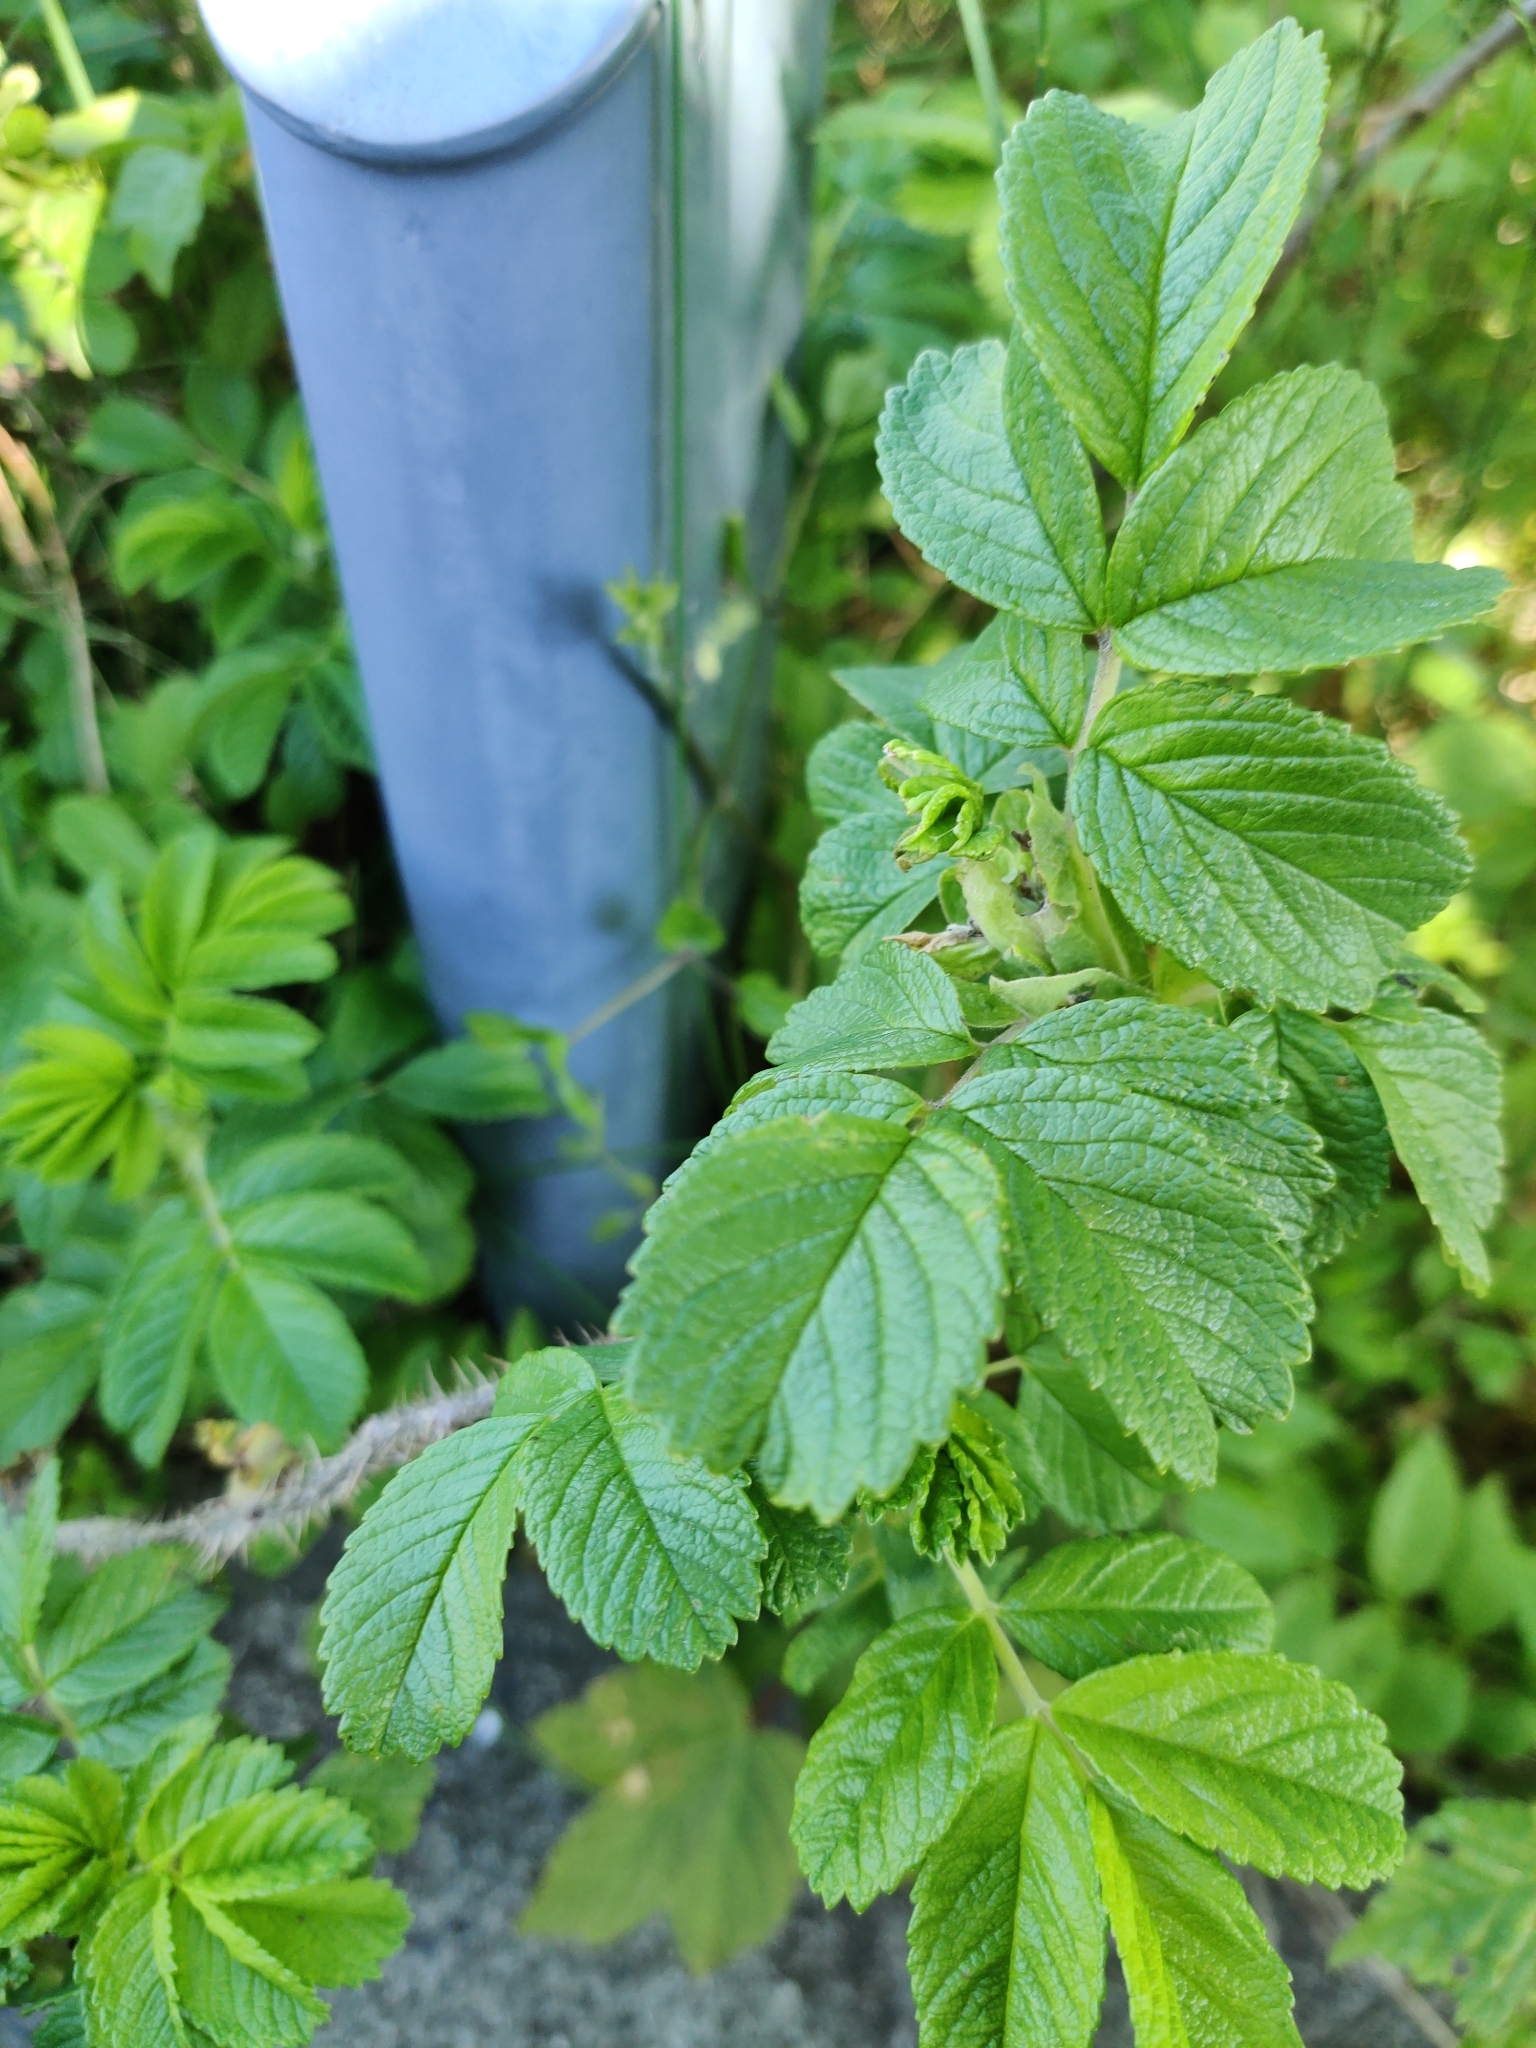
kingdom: Plantae
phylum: Tracheophyta
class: Magnoliopsida
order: Rosales
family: Rosaceae
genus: Rosa
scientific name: Rosa rugosa
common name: Japanese rose
